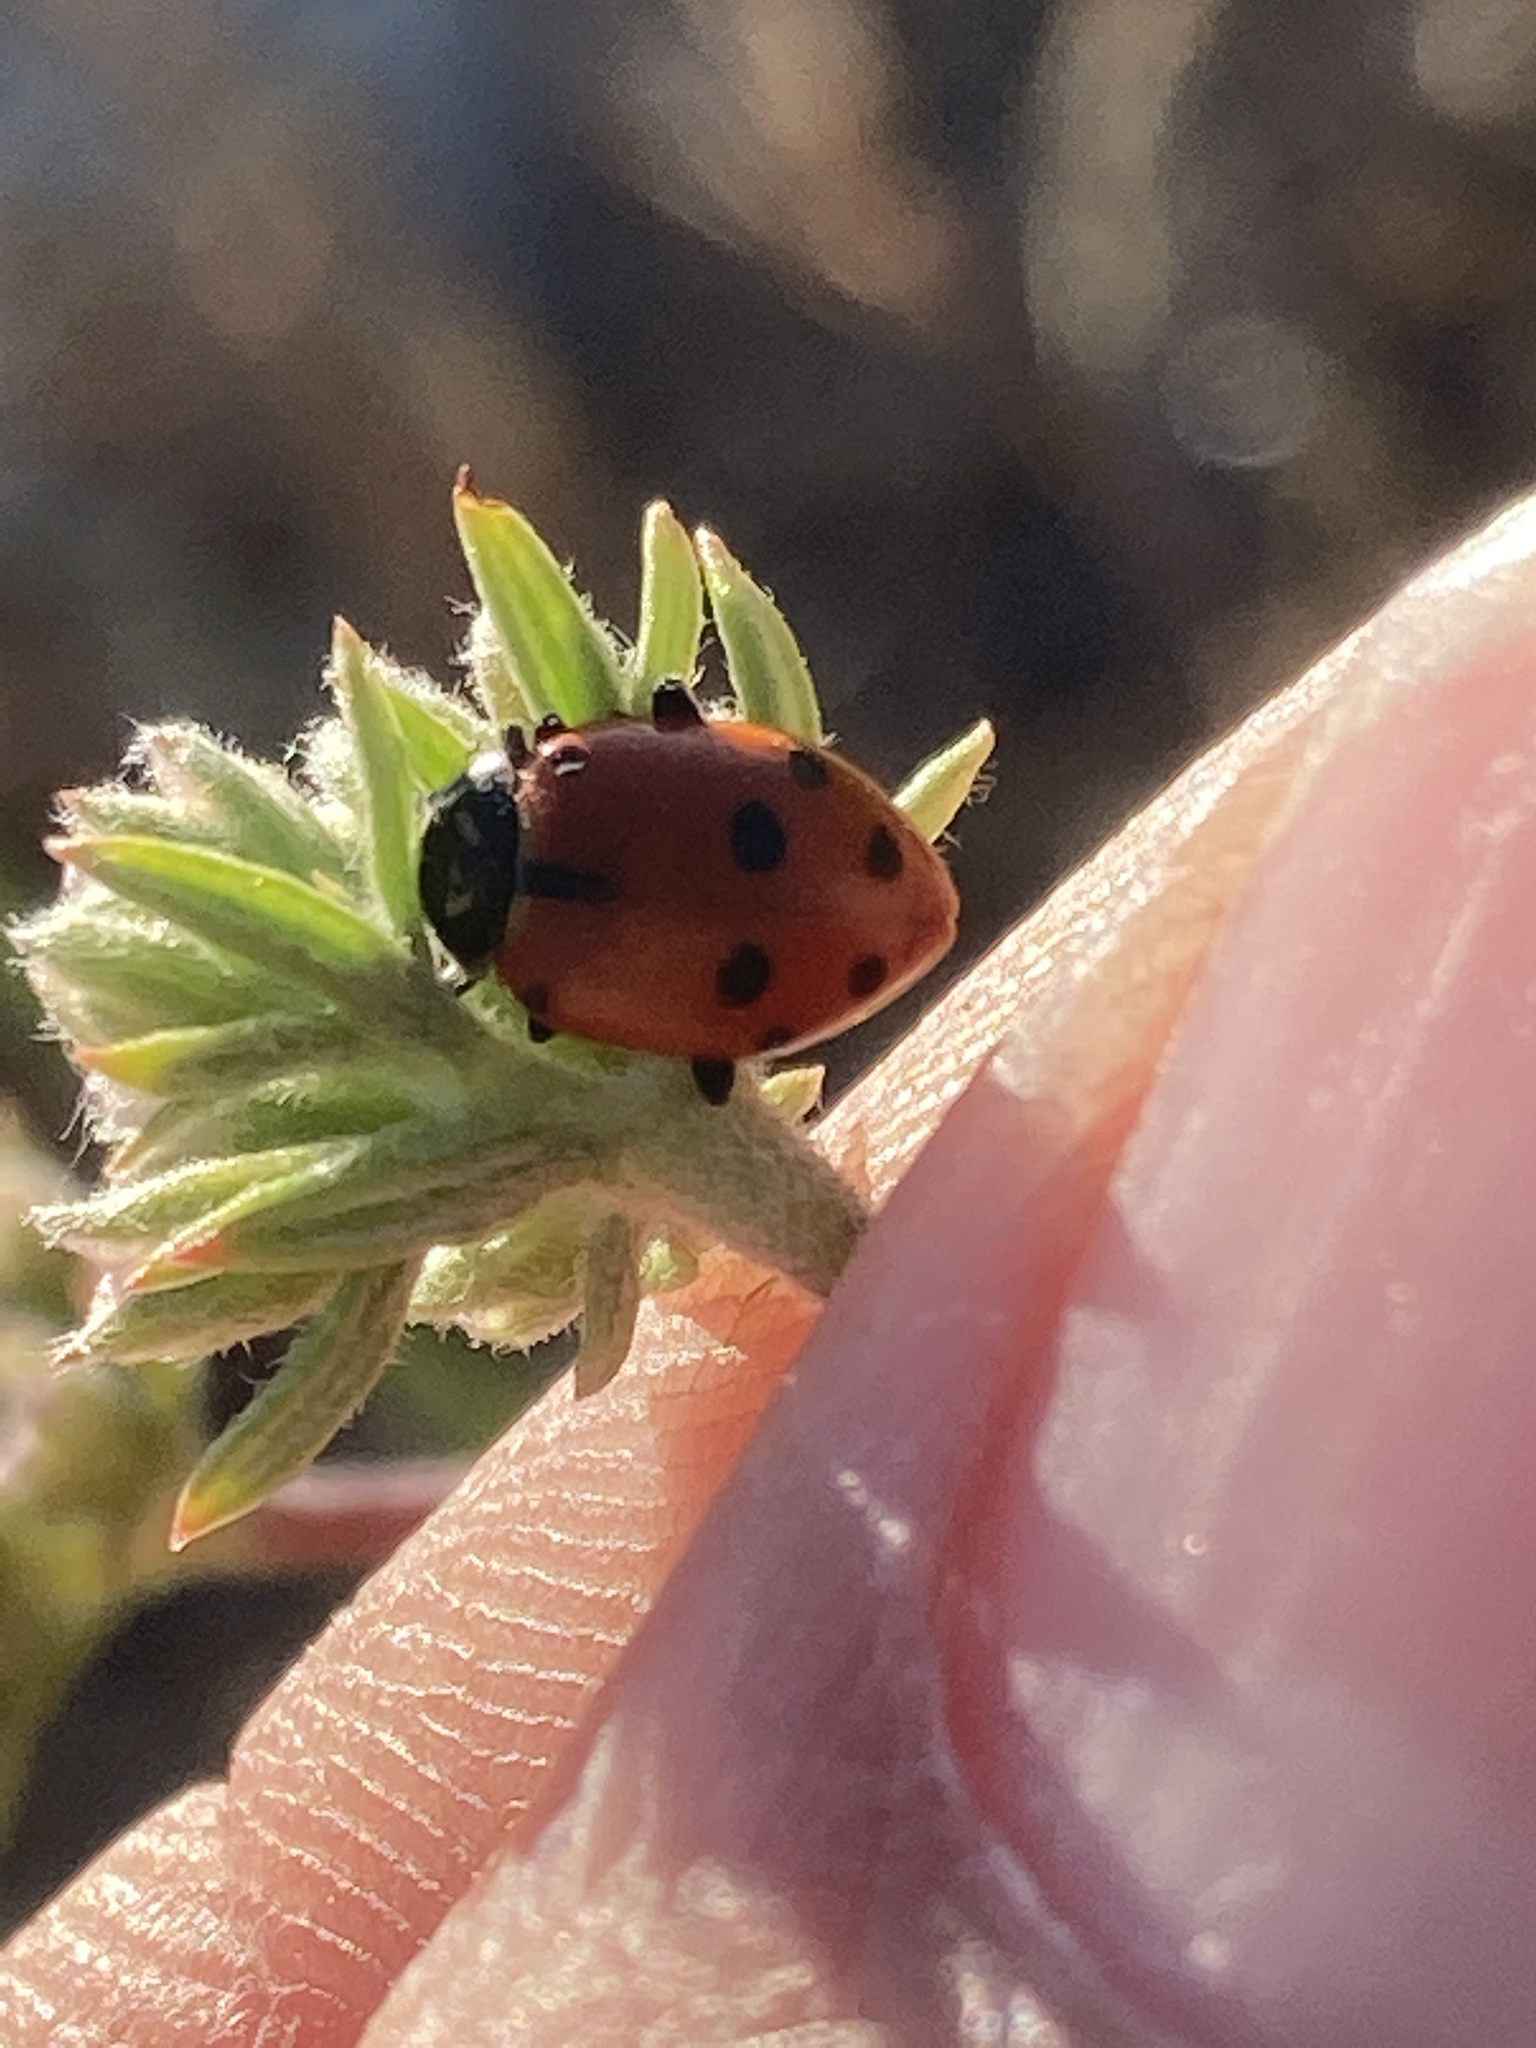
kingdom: Animalia
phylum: Arthropoda
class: Insecta
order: Coleoptera
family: Coccinellidae
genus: Hippodamia
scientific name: Hippodamia convergens
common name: Convergent lady beetle
